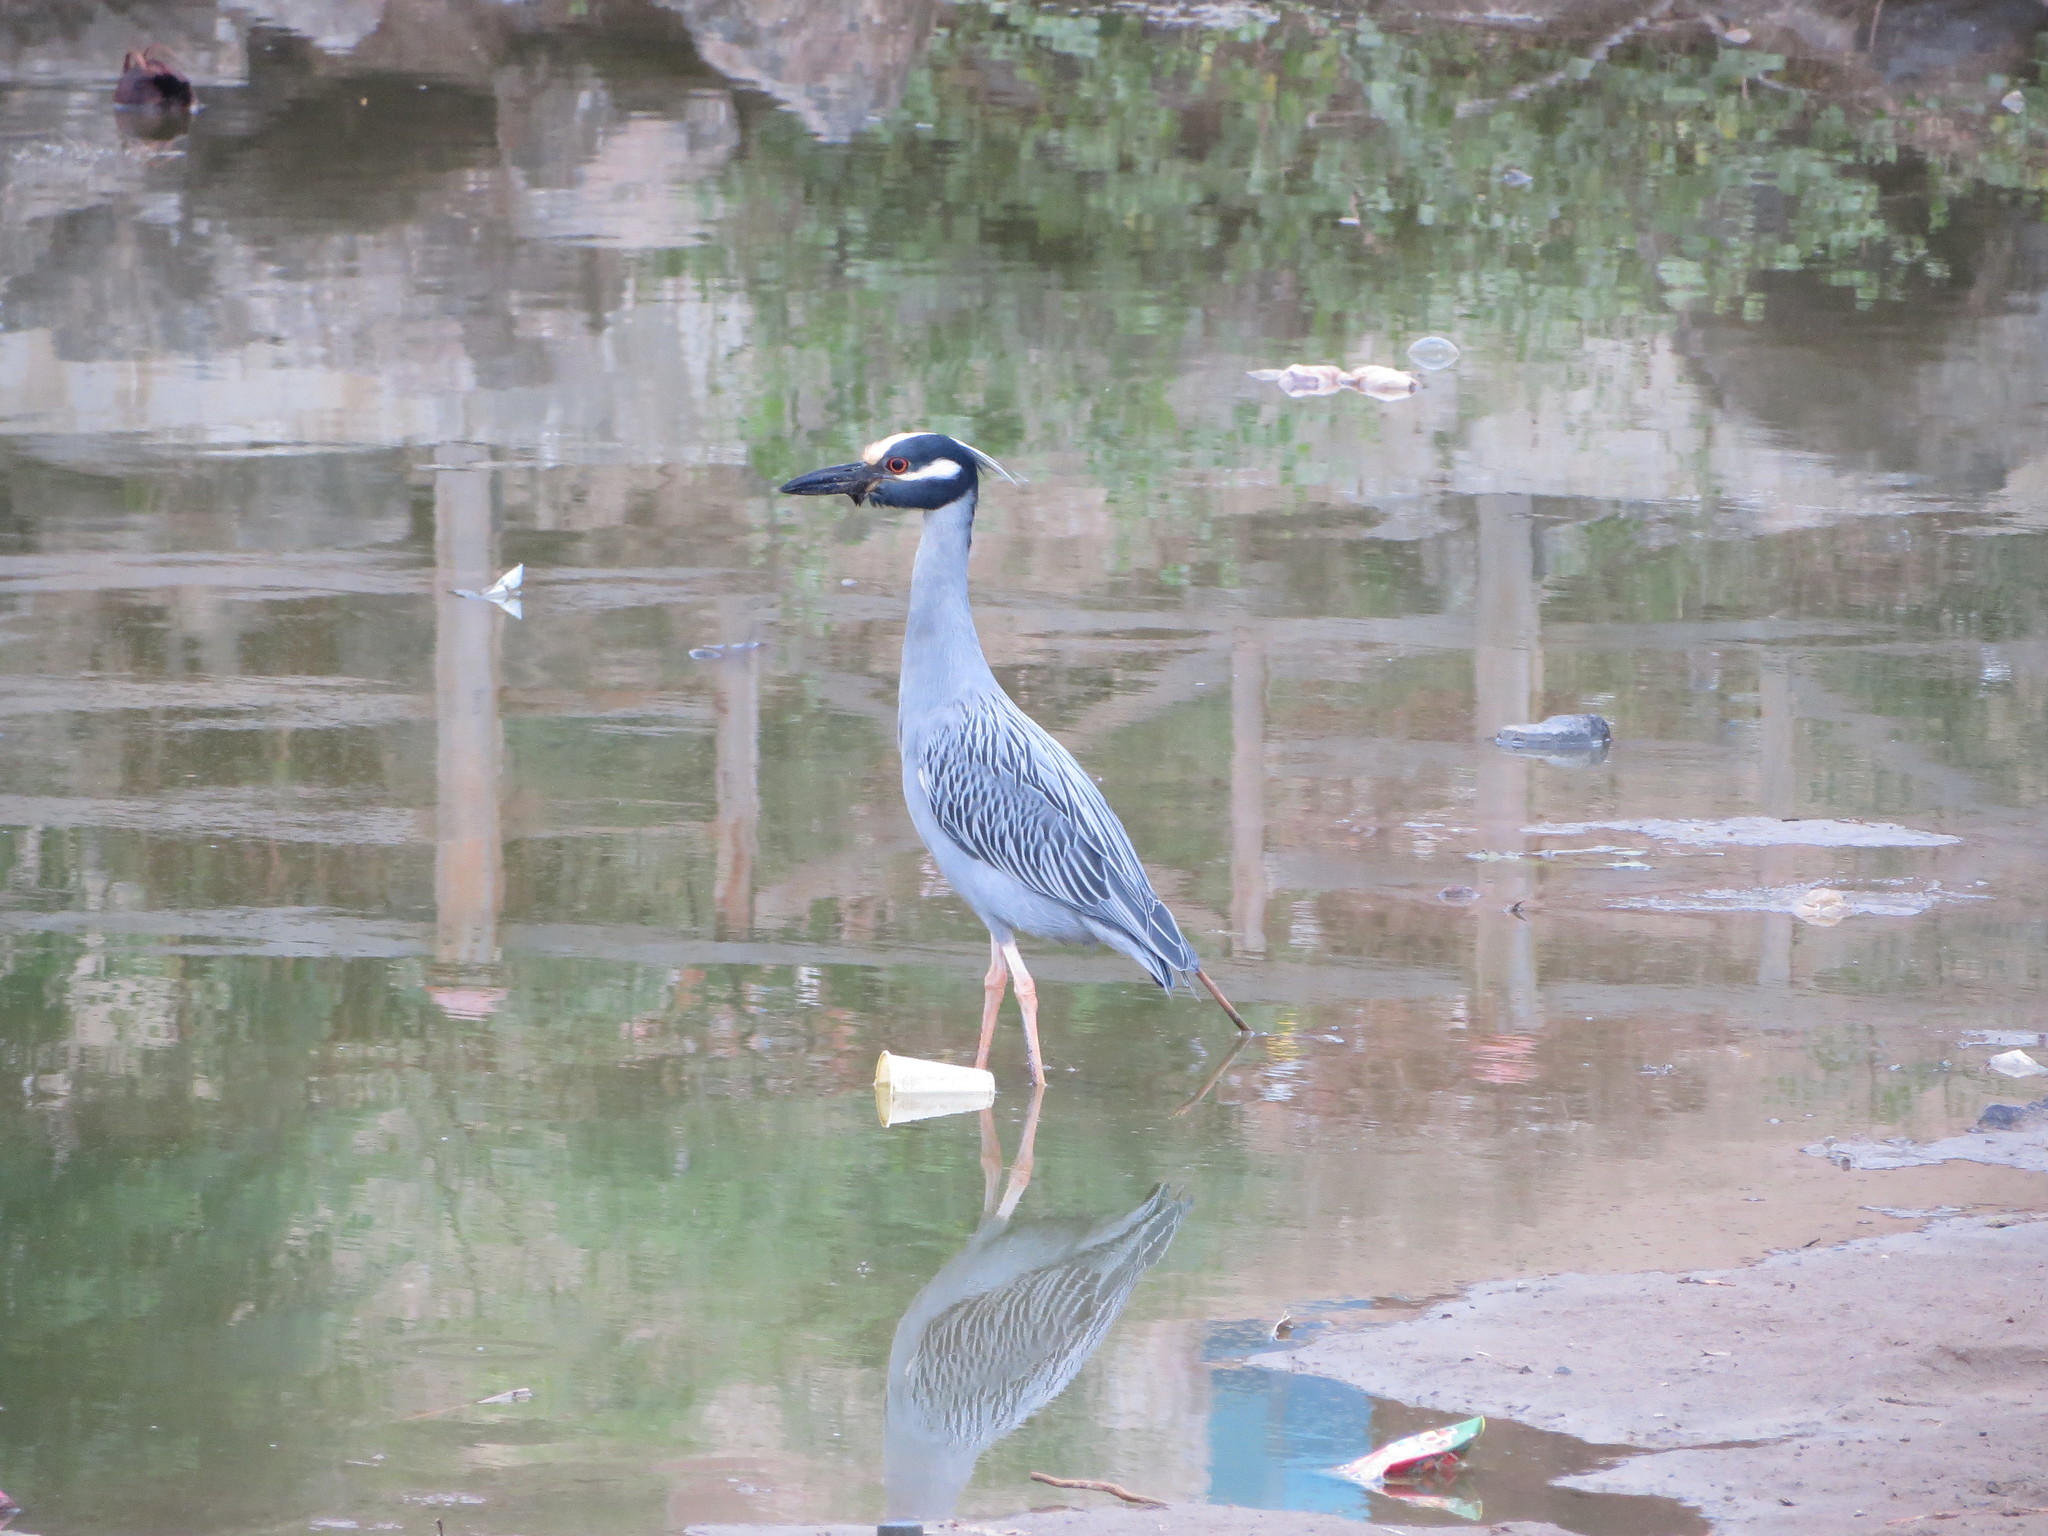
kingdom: Animalia
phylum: Chordata
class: Aves
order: Pelecaniformes
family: Ardeidae
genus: Nyctanassa
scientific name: Nyctanassa violacea
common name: Yellow-crowned night heron
